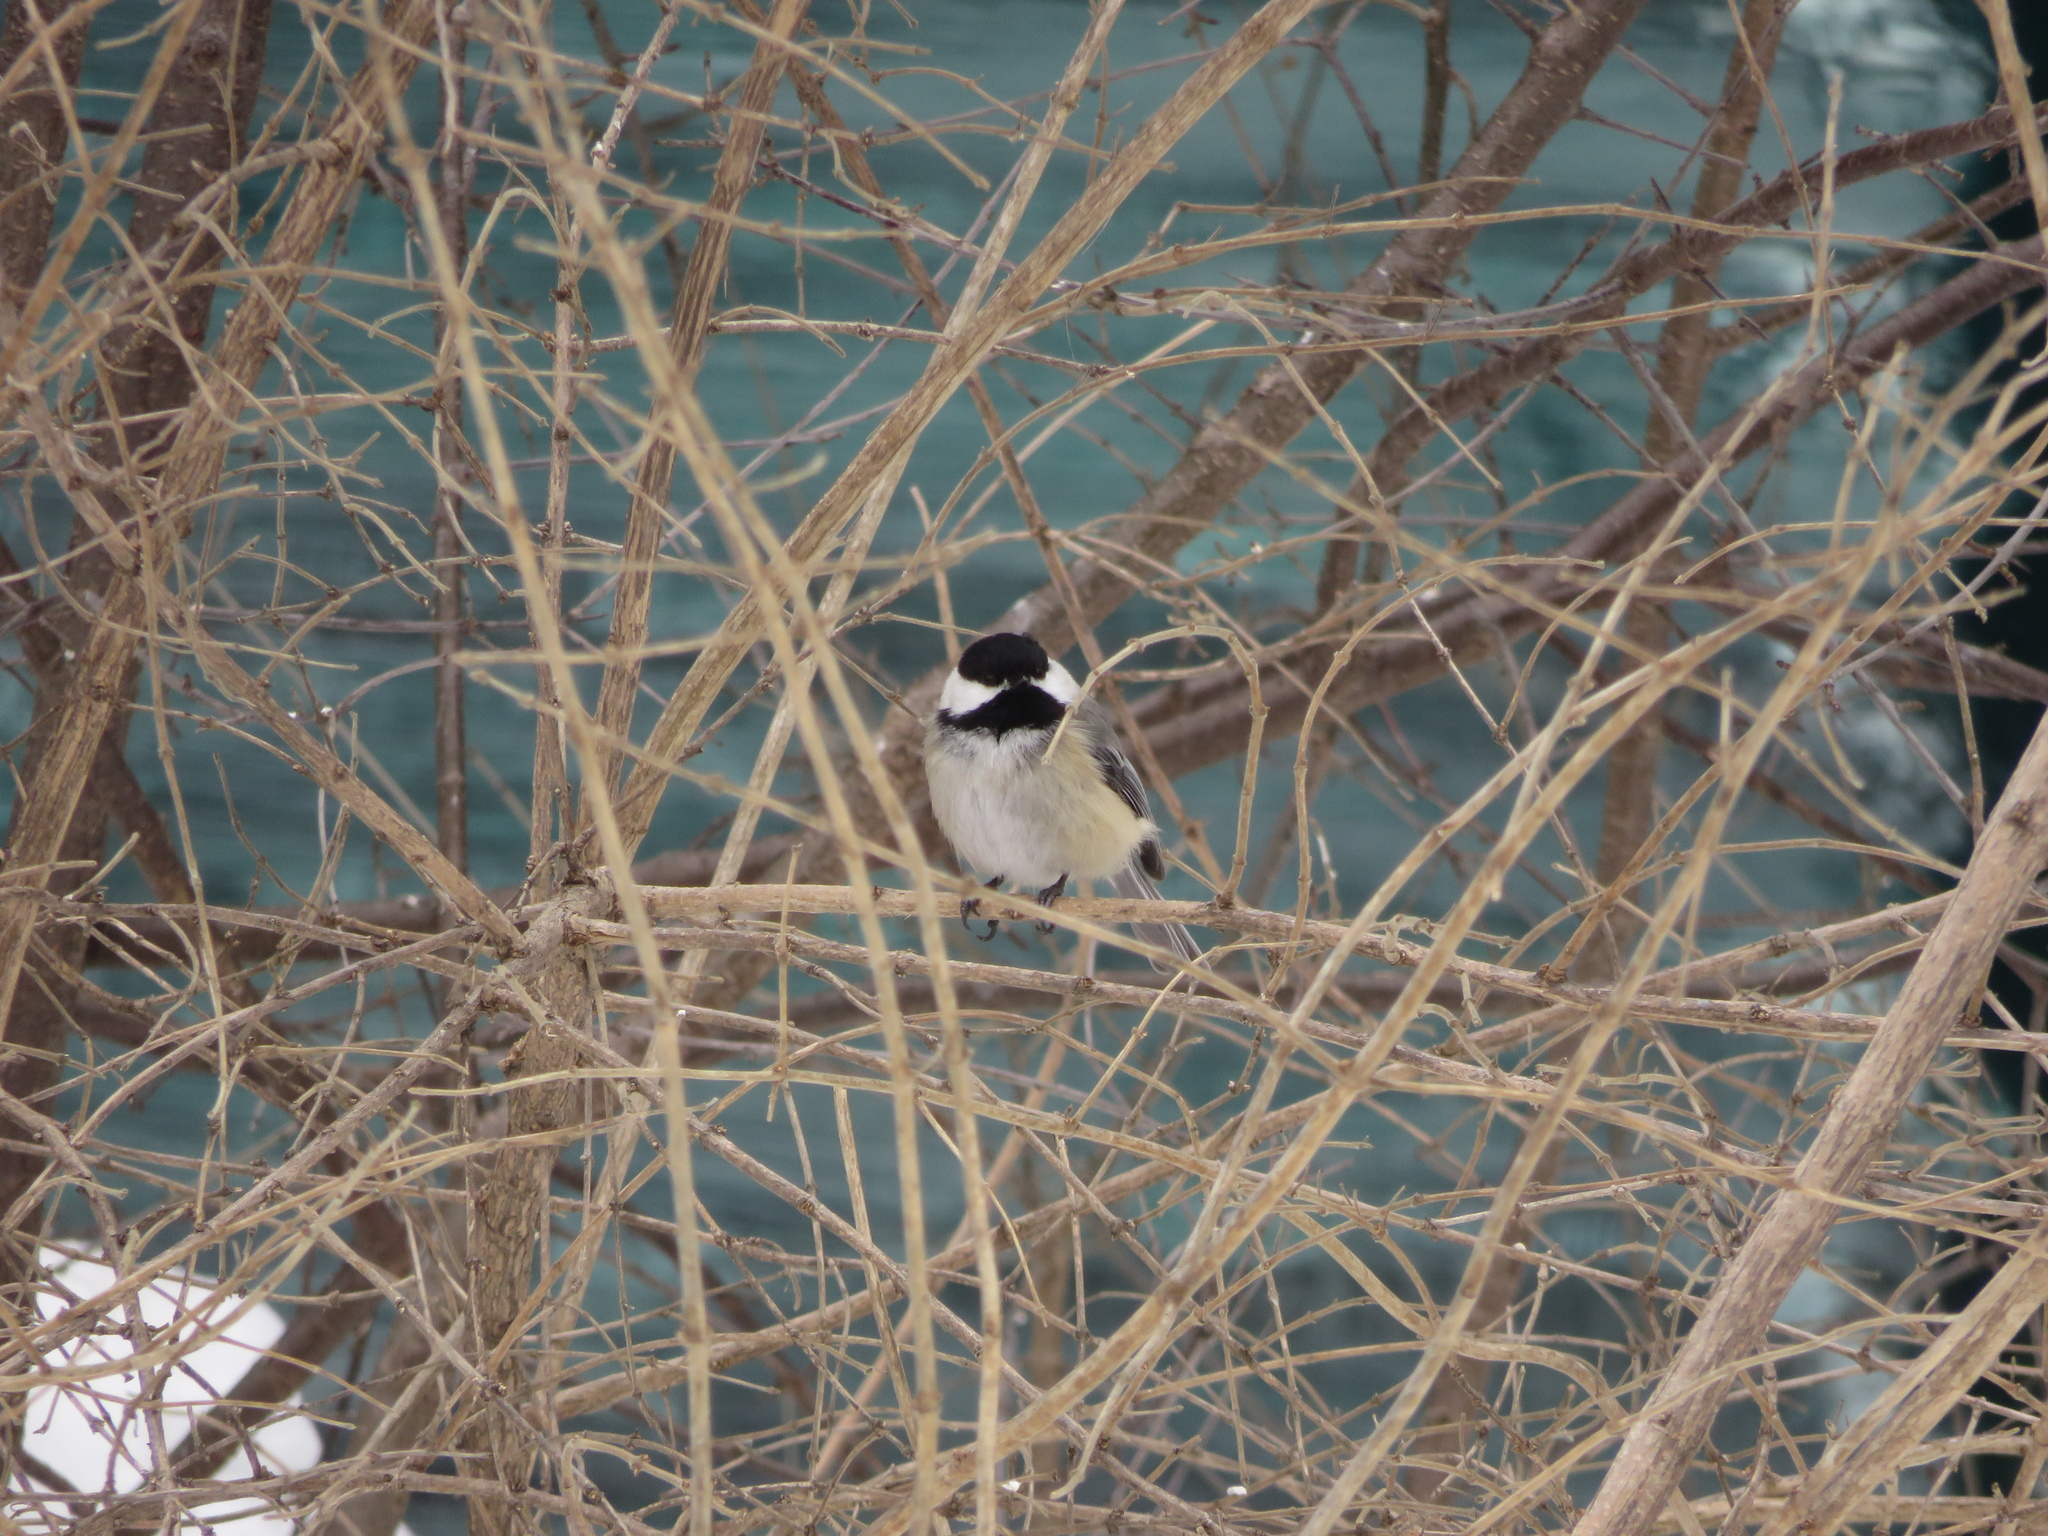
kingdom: Animalia
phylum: Chordata
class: Aves
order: Passeriformes
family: Paridae
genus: Poecile
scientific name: Poecile atricapillus
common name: Black-capped chickadee
